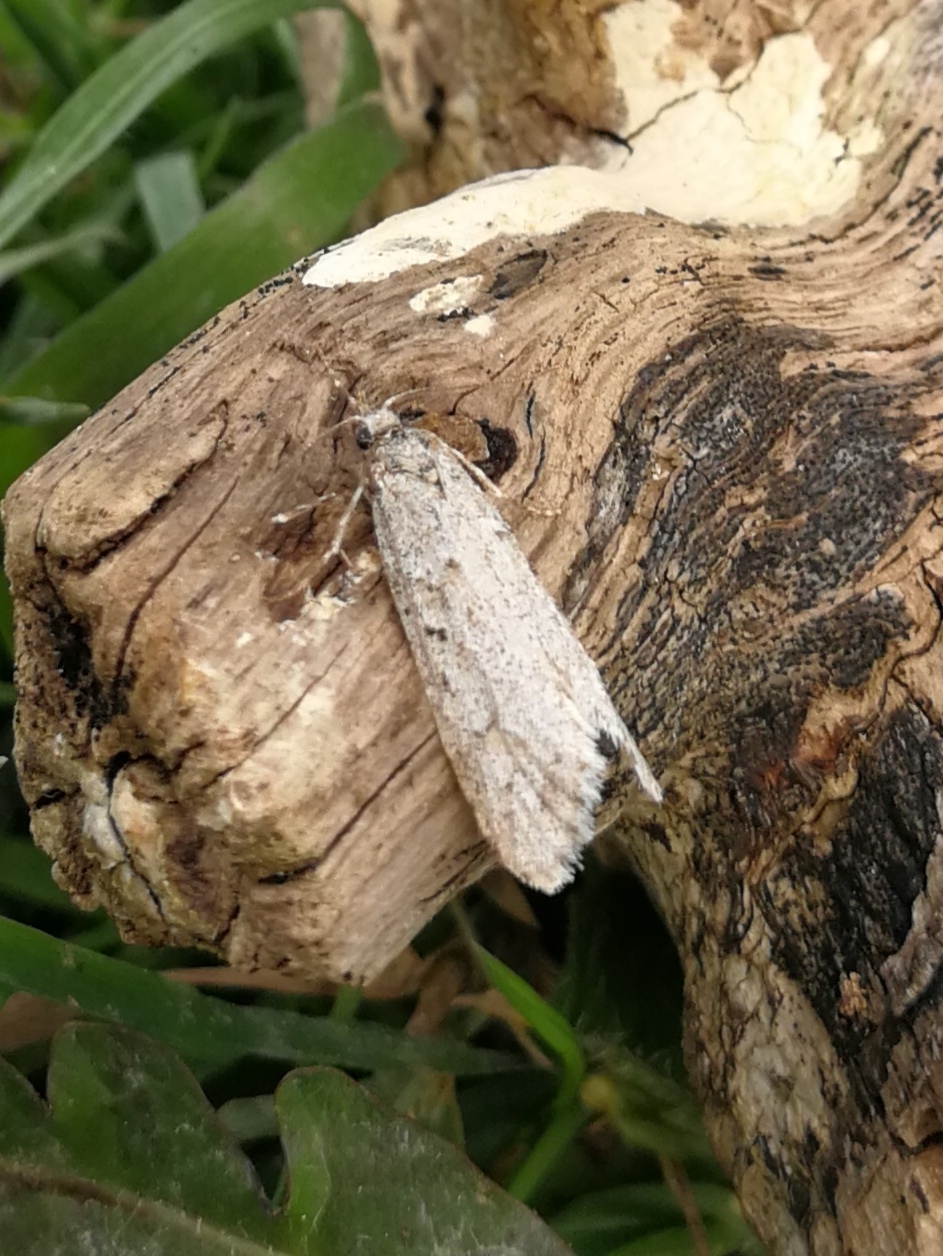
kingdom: Animalia
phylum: Arthropoda
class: Insecta
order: Lepidoptera
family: Lypusidae
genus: Diurnea
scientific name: Diurnea fagella
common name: March tubic
